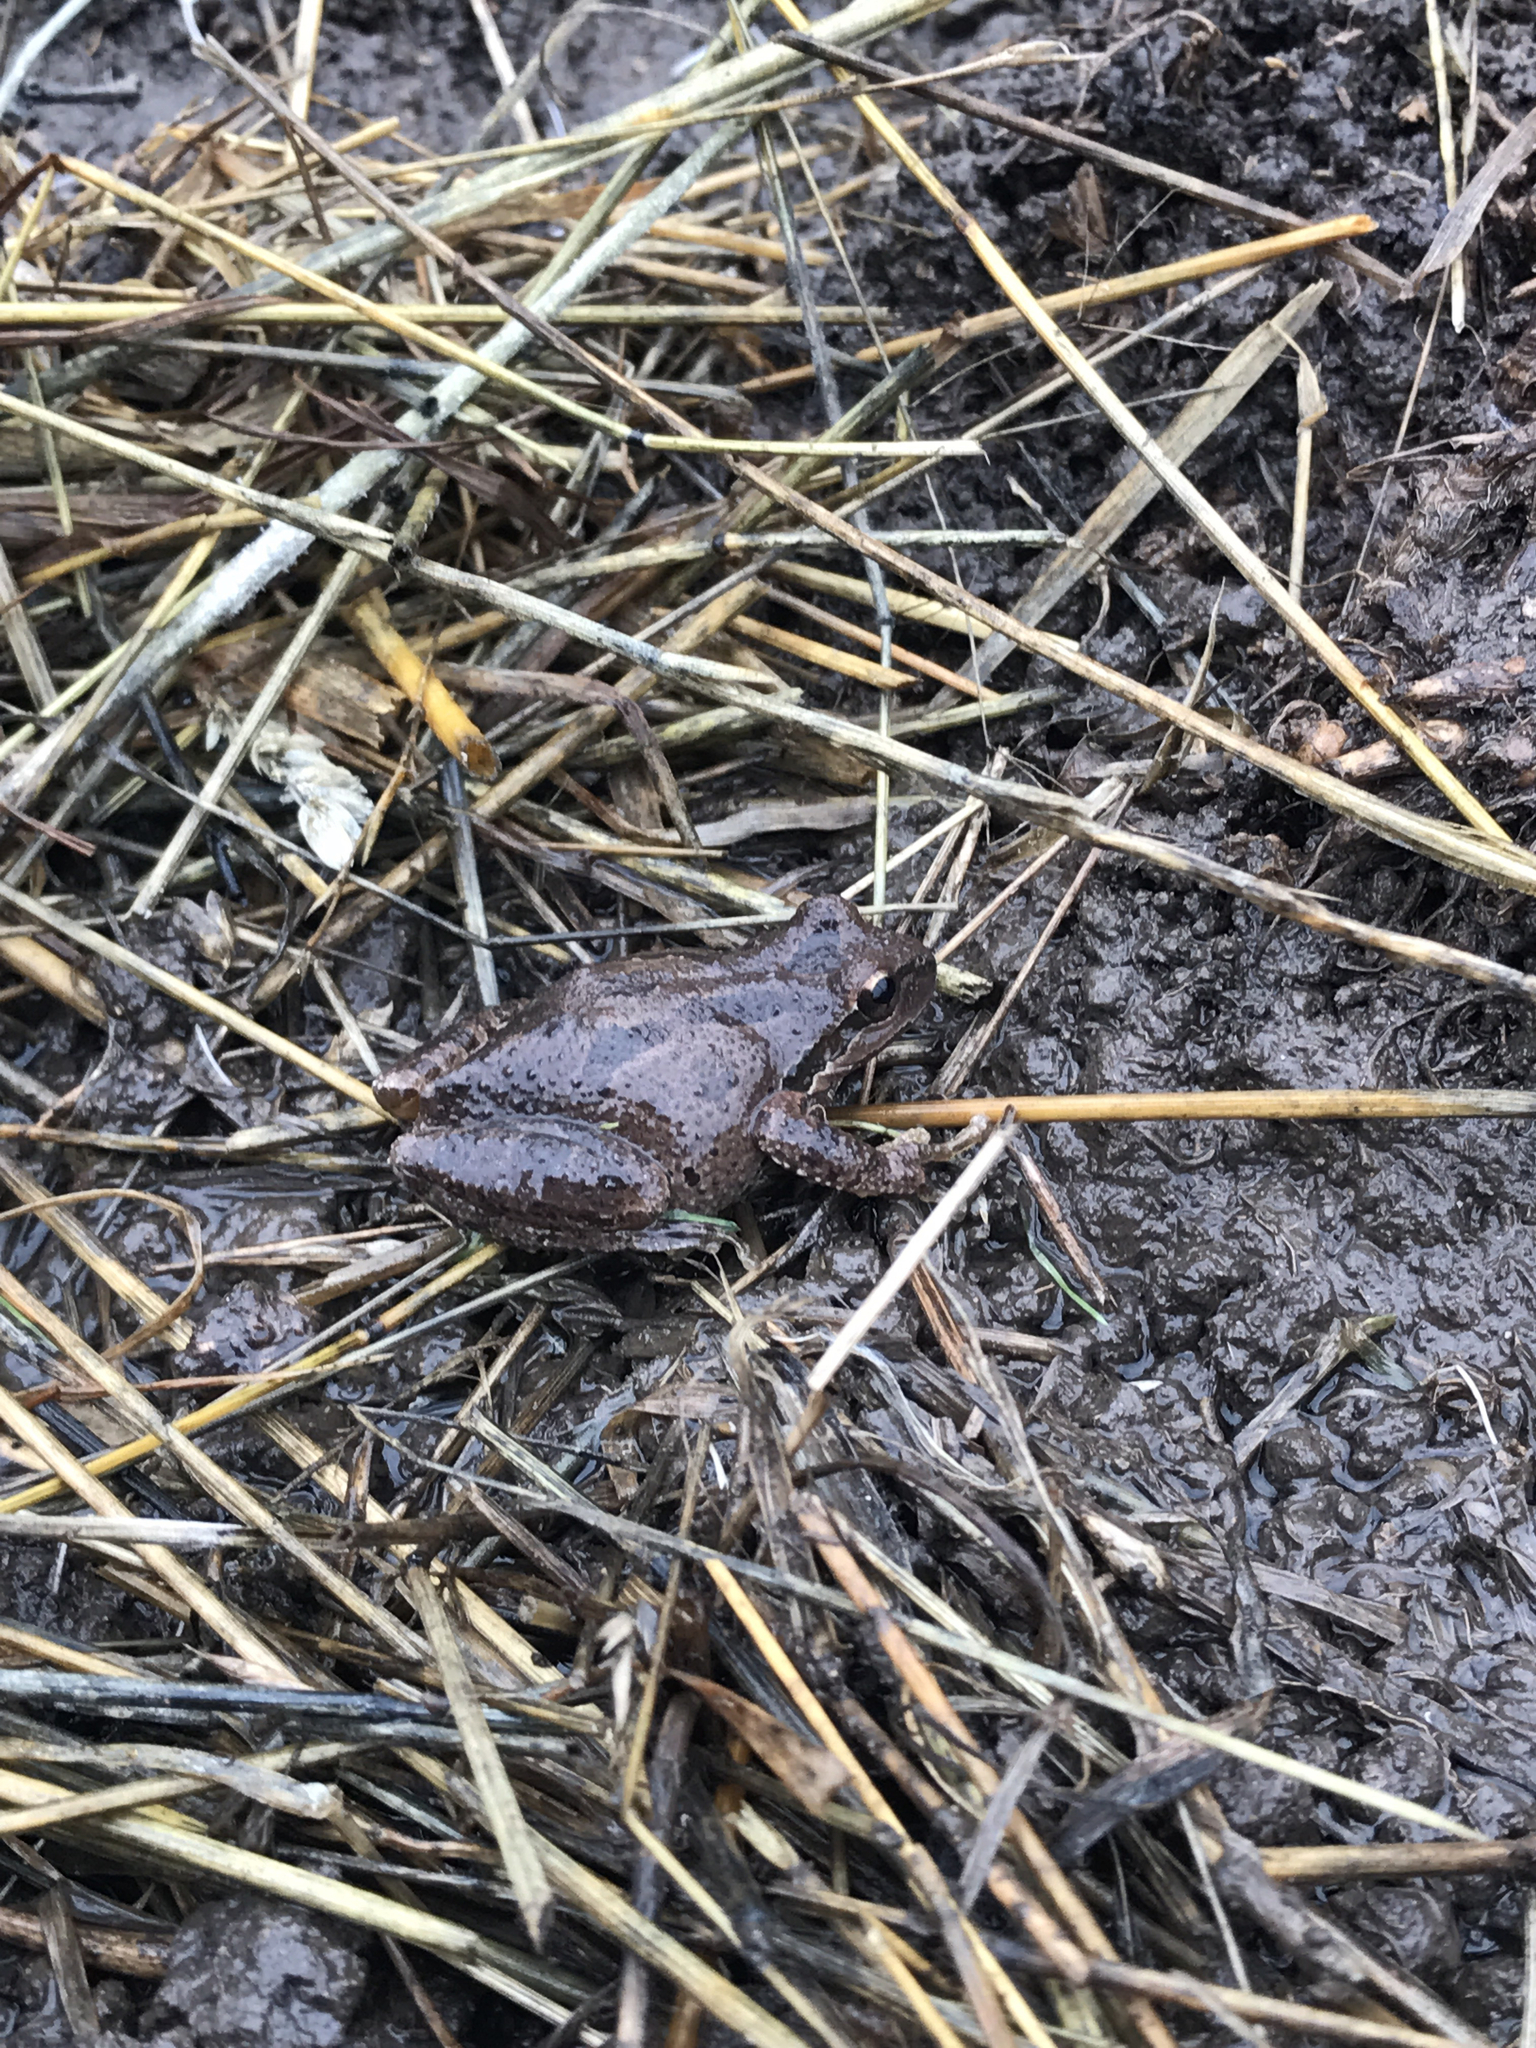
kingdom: Animalia
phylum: Chordata
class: Amphibia
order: Anura
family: Hylidae
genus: Pseudacris
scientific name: Pseudacris regilla
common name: Pacific chorus frog
